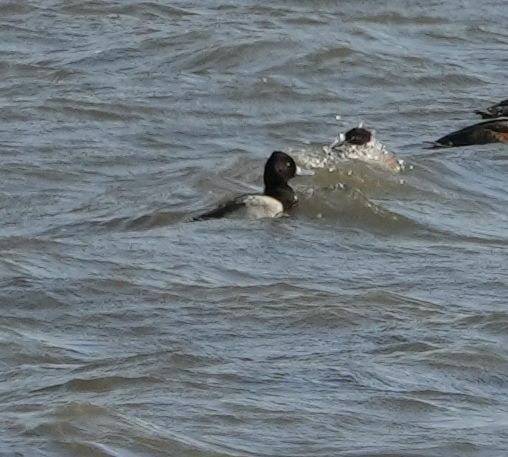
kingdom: Animalia
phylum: Chordata
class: Aves
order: Anseriformes
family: Anatidae
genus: Aythya
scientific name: Aythya affinis
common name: Lesser scaup
